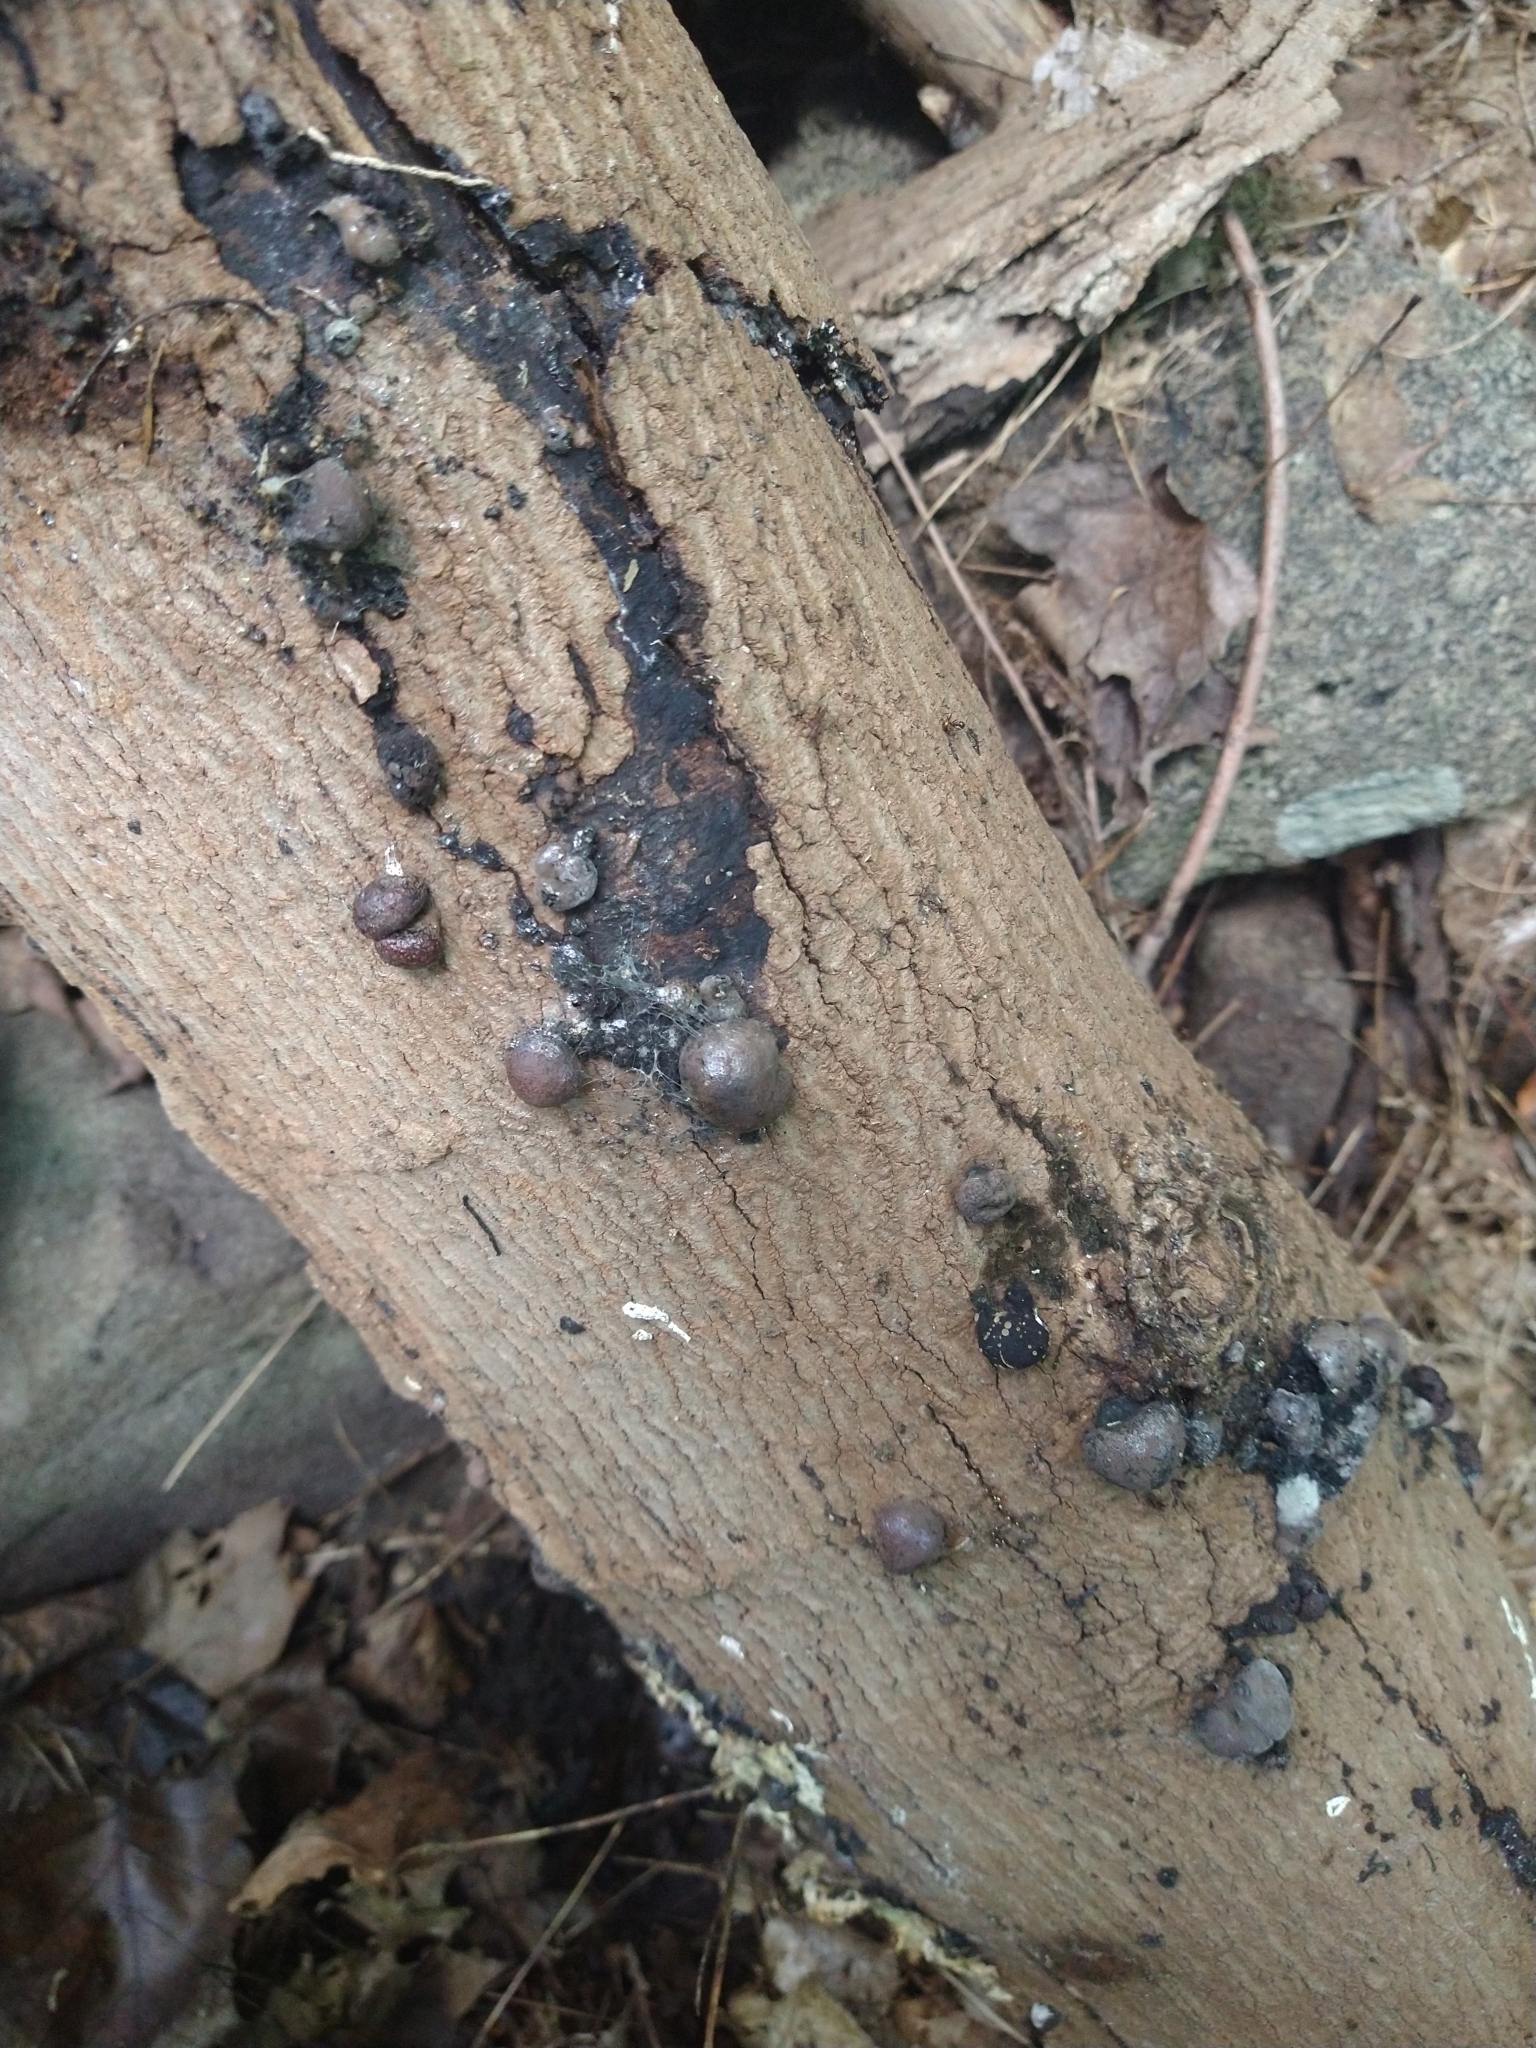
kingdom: Fungi
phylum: Ascomycota
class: Sordariomycetes
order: Xylariales
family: Hypoxylaceae
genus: Hypoxylon
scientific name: Hypoxylon howeanum
